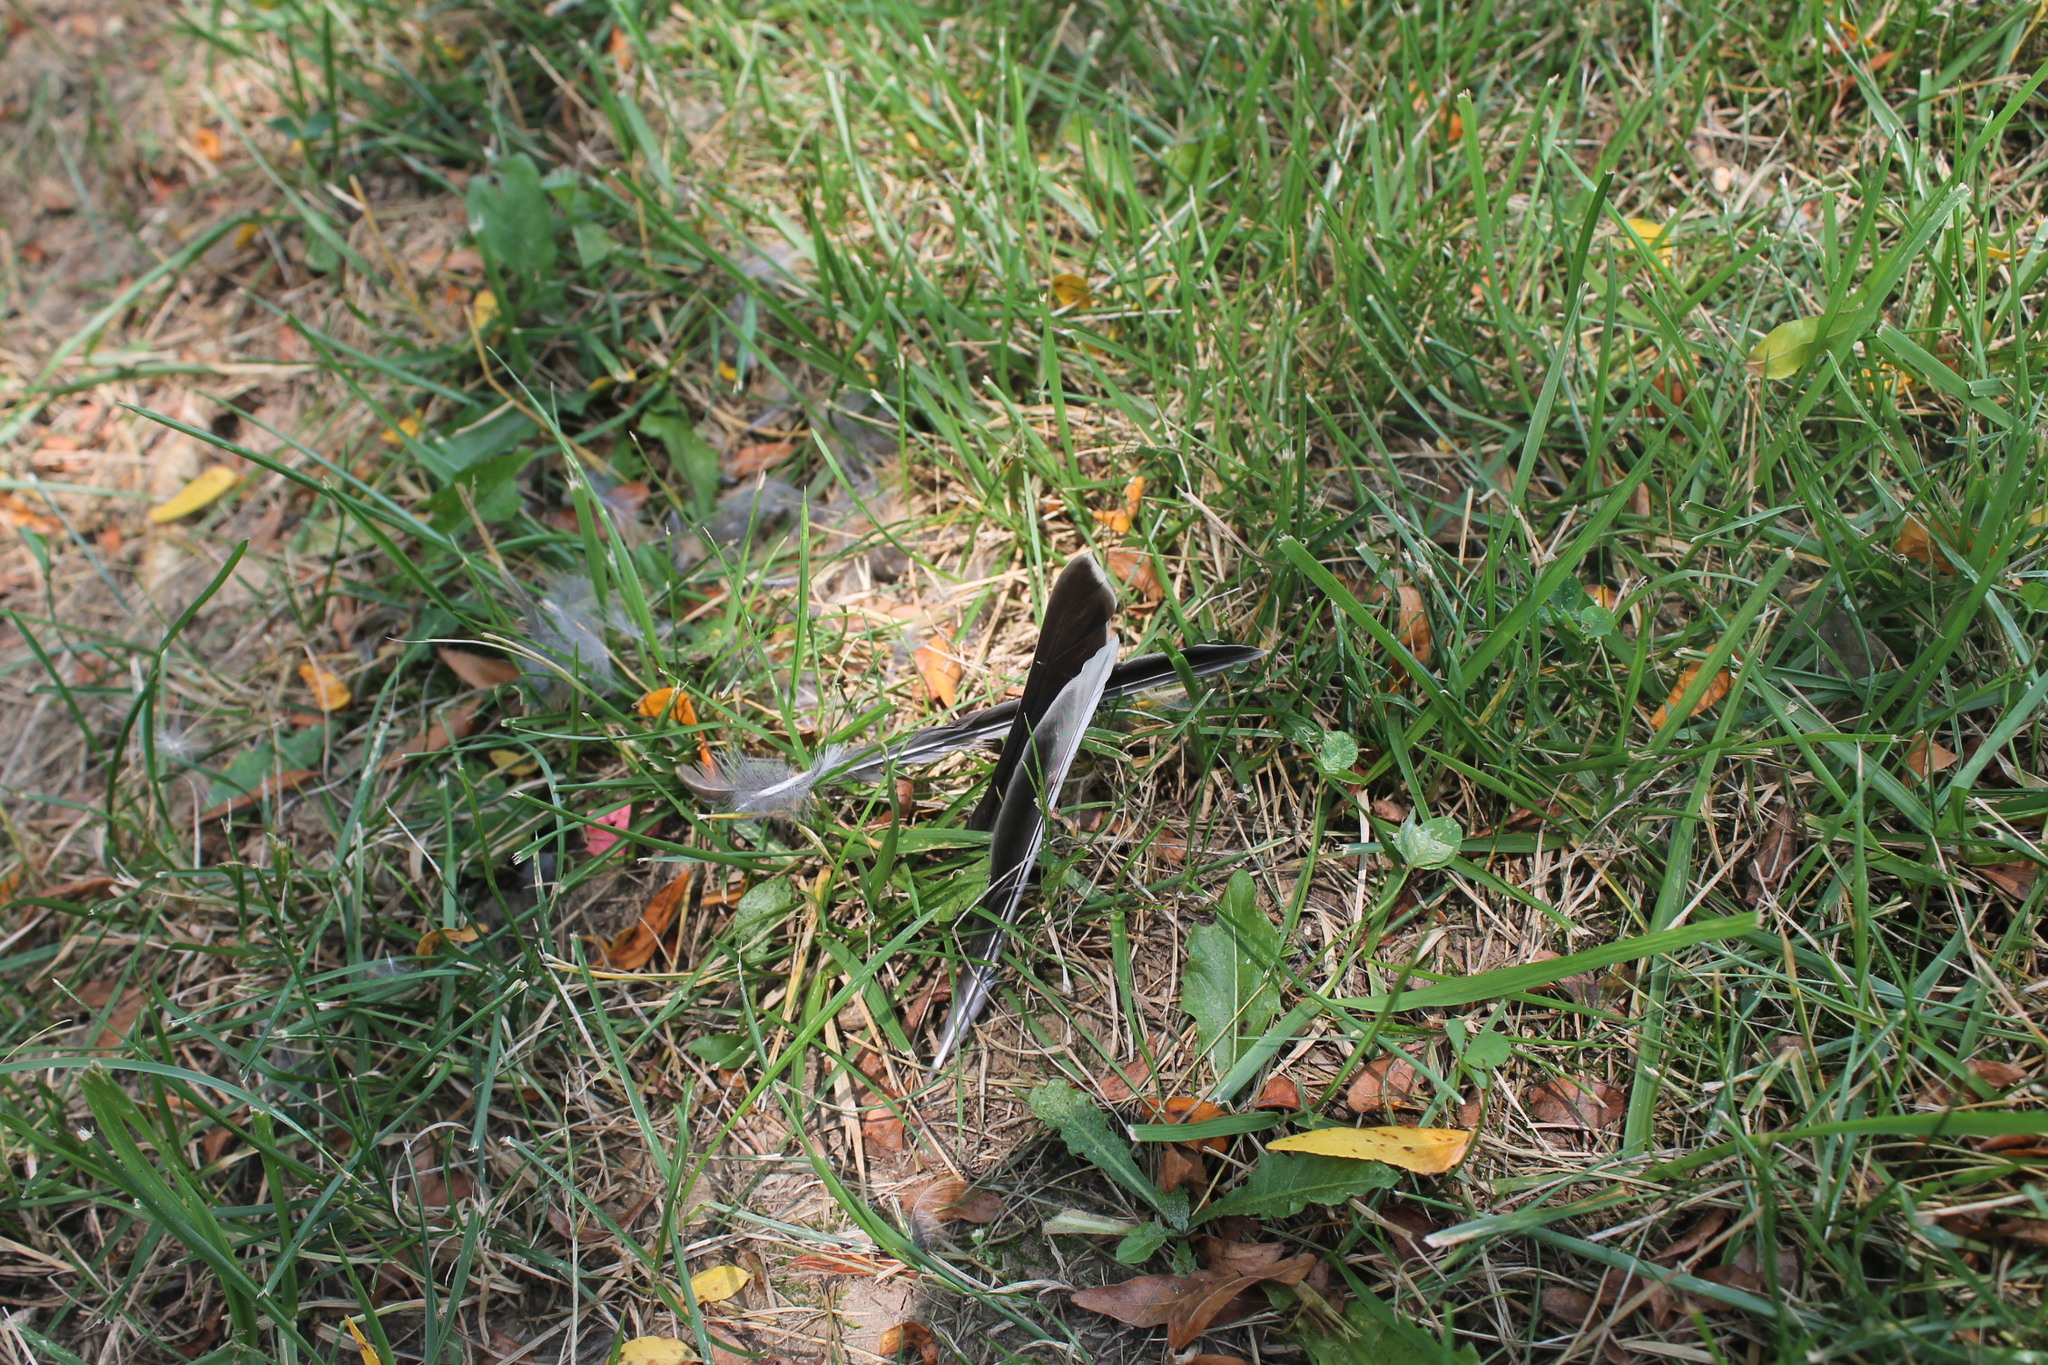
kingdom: Animalia
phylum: Chordata
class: Aves
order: Passeriformes
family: Turdidae
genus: Turdus
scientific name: Turdus migratorius
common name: American robin
